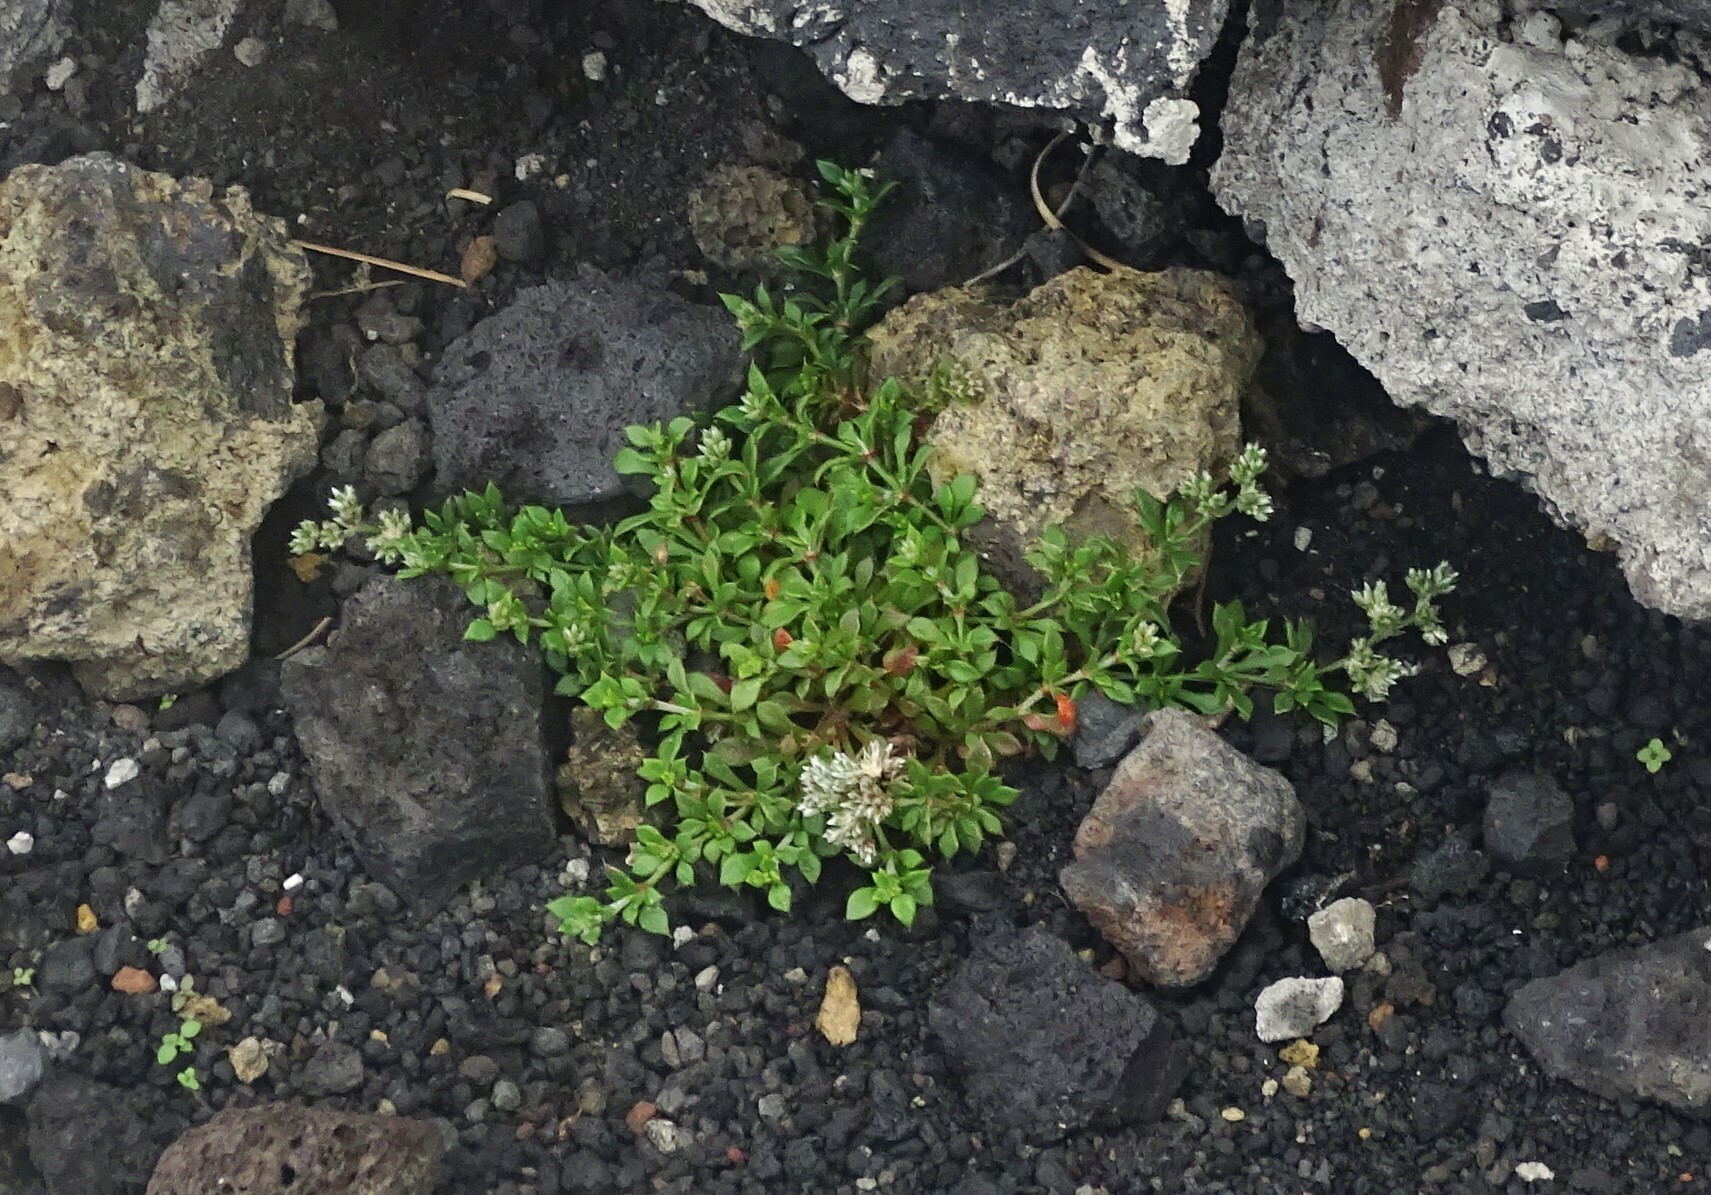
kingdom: Plantae
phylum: Tracheophyta
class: Magnoliopsida
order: Caryophyllales
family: Caryophyllaceae
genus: Polycarpaea
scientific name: Polycarpaea divaricata
